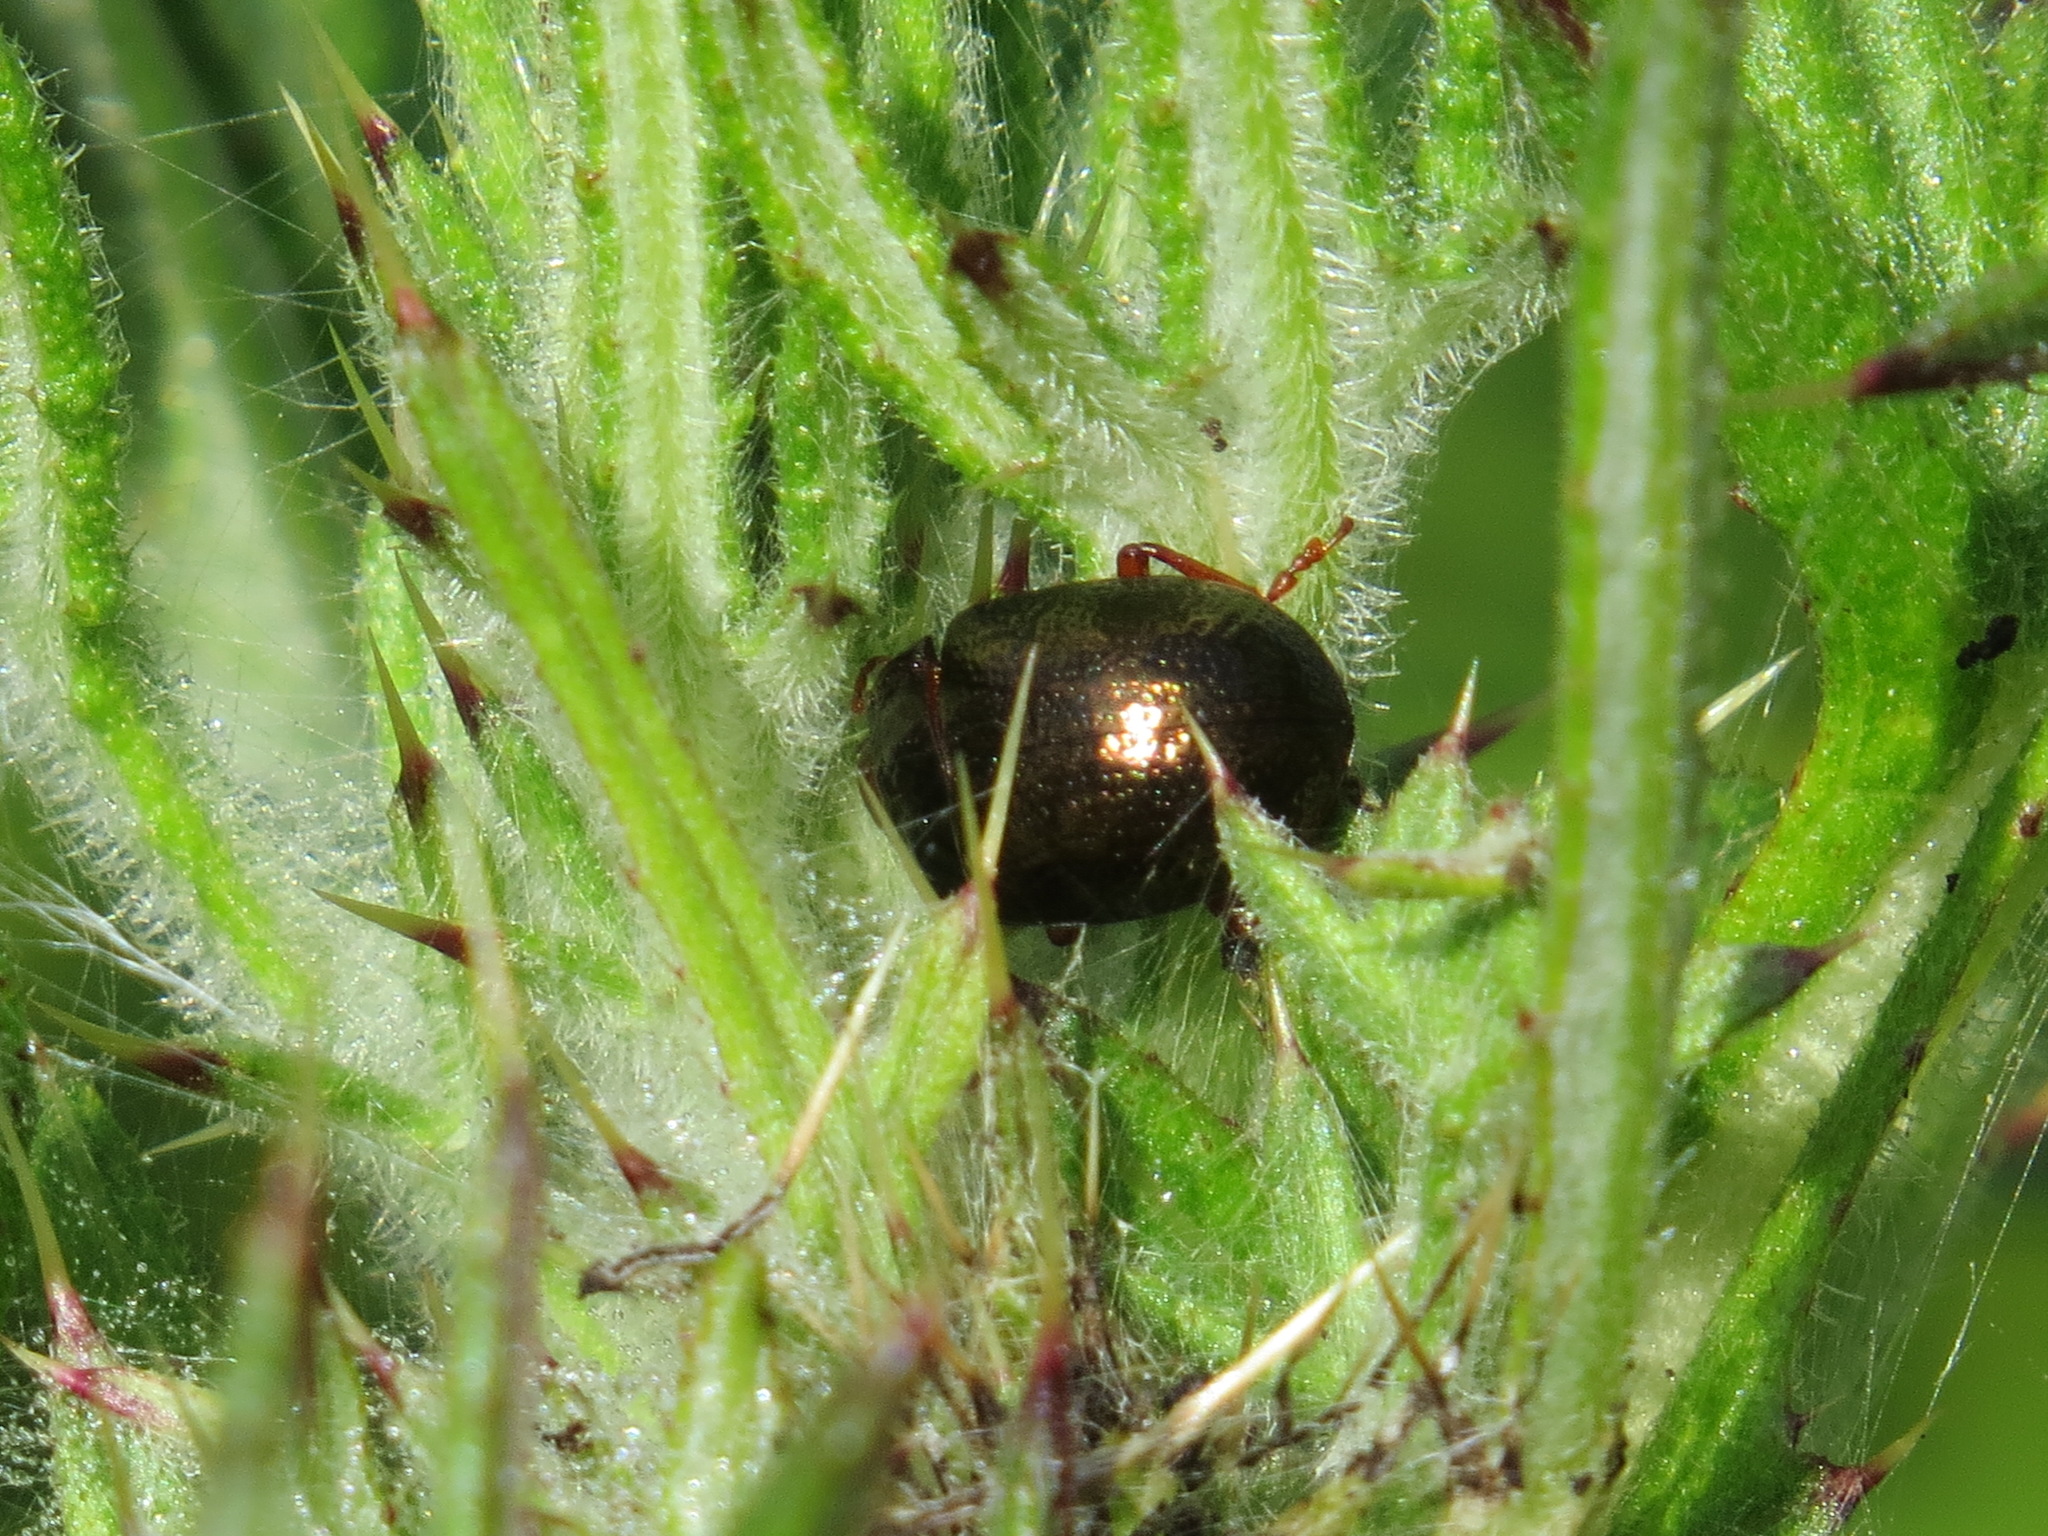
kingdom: Animalia
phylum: Arthropoda
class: Insecta
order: Coleoptera
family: Chrysomelidae
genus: Chrysolina
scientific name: Chrysolina bankii
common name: Leaf beetle
